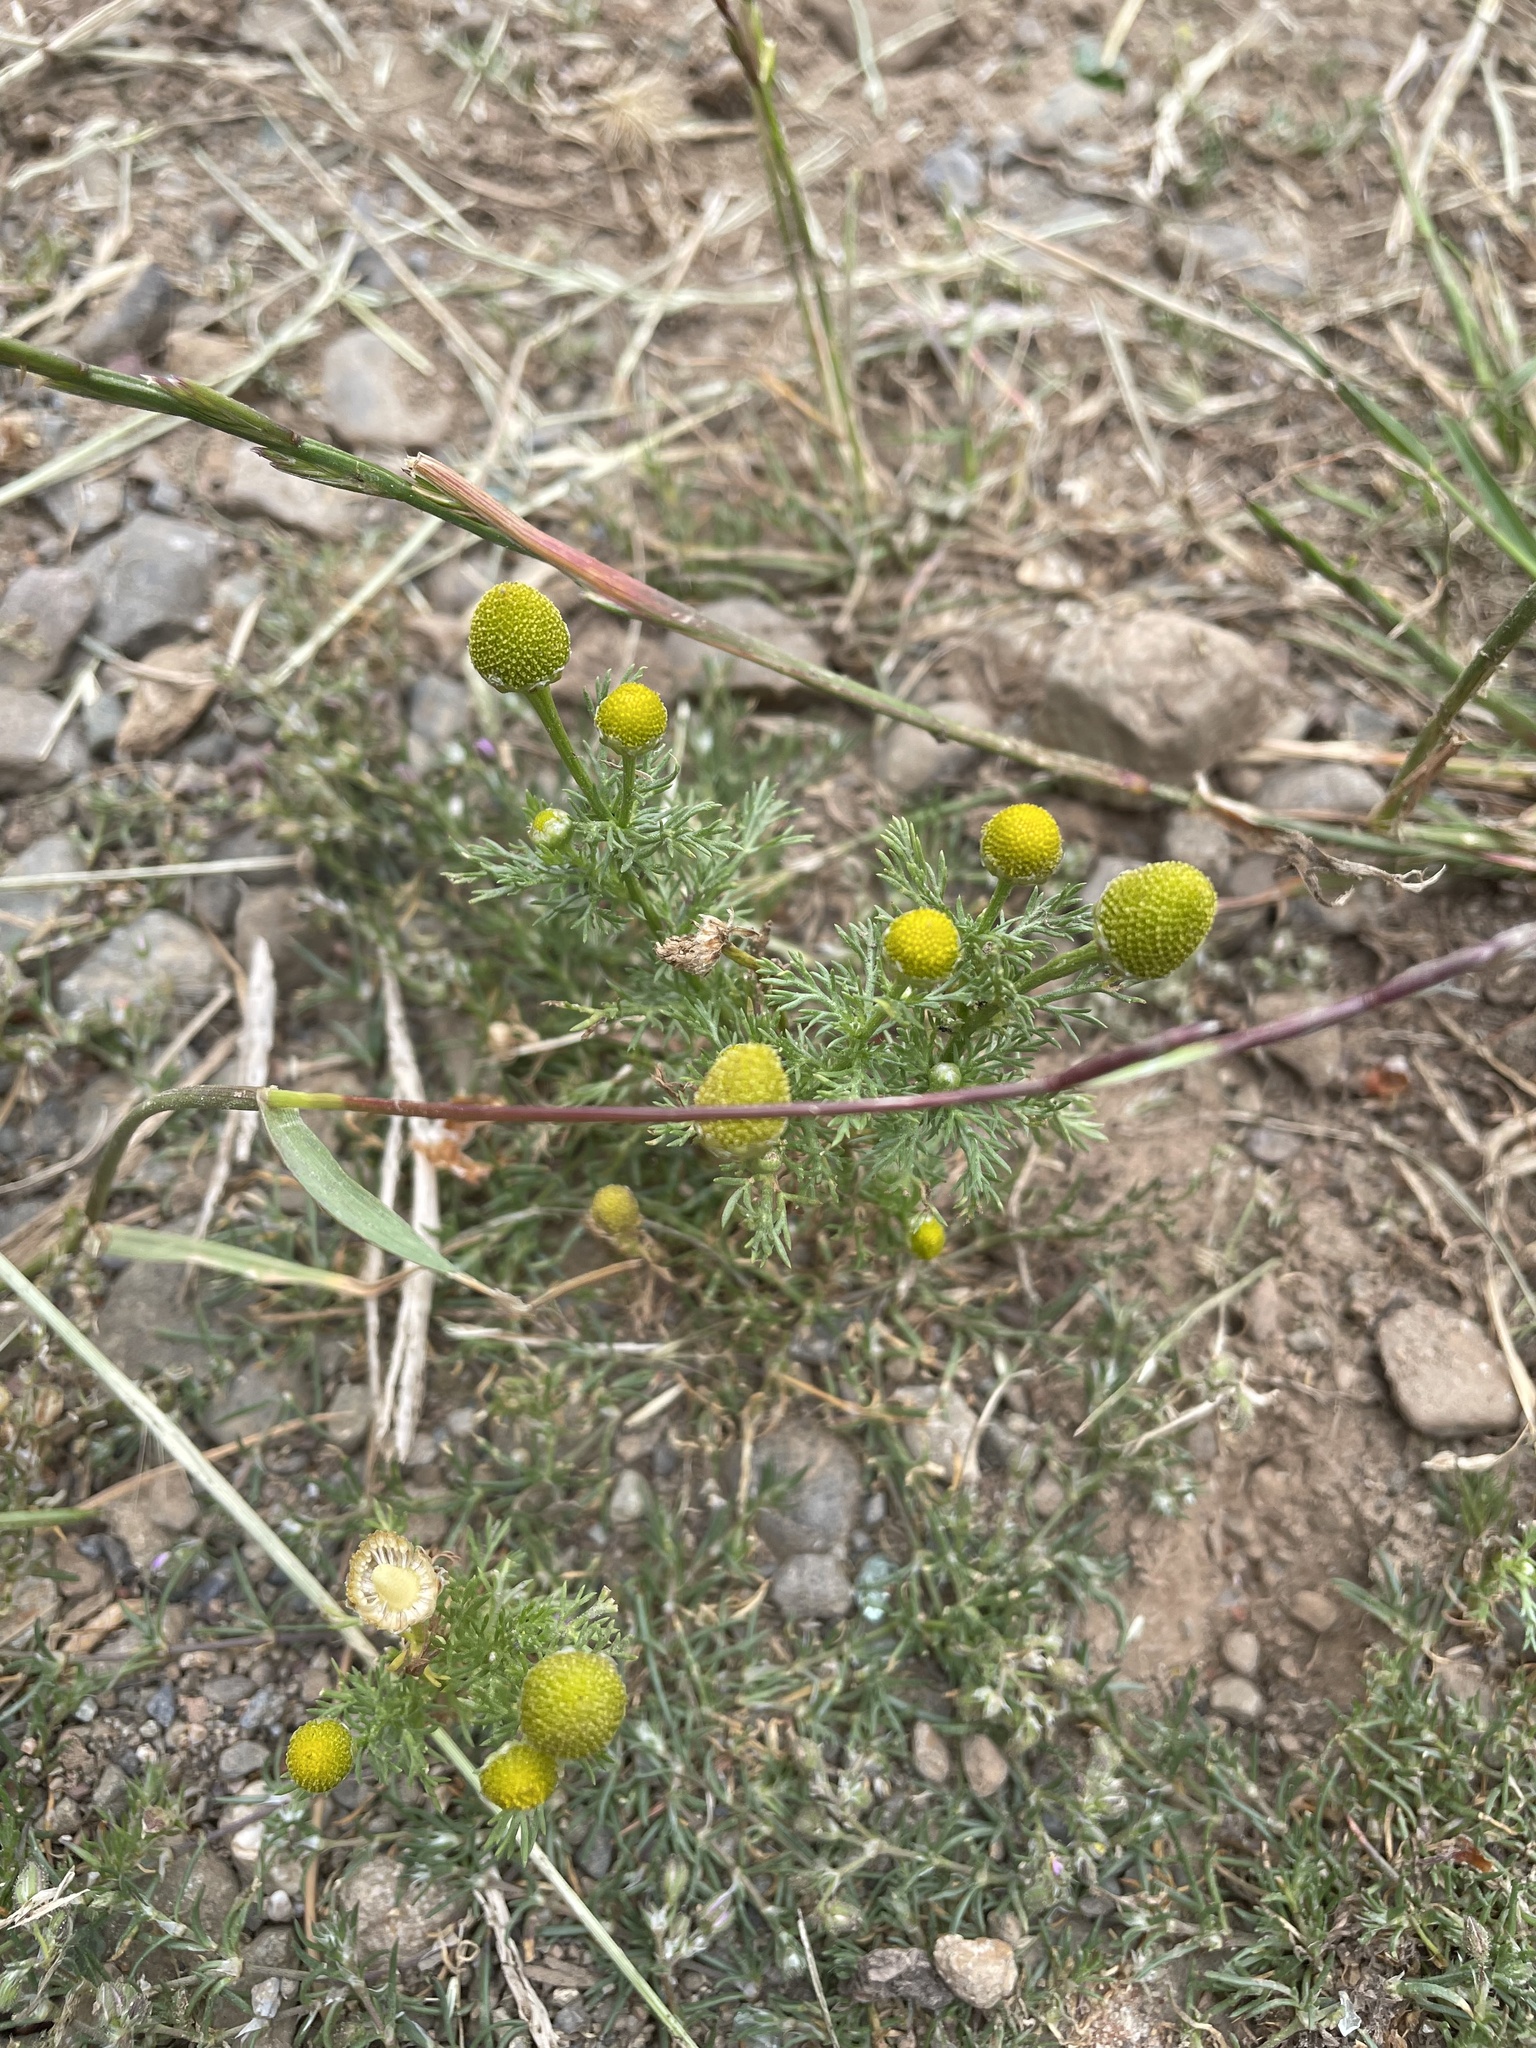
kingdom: Plantae
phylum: Tracheophyta
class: Magnoliopsida
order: Asterales
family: Asteraceae
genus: Matricaria
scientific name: Matricaria discoidea
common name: Disc mayweed
